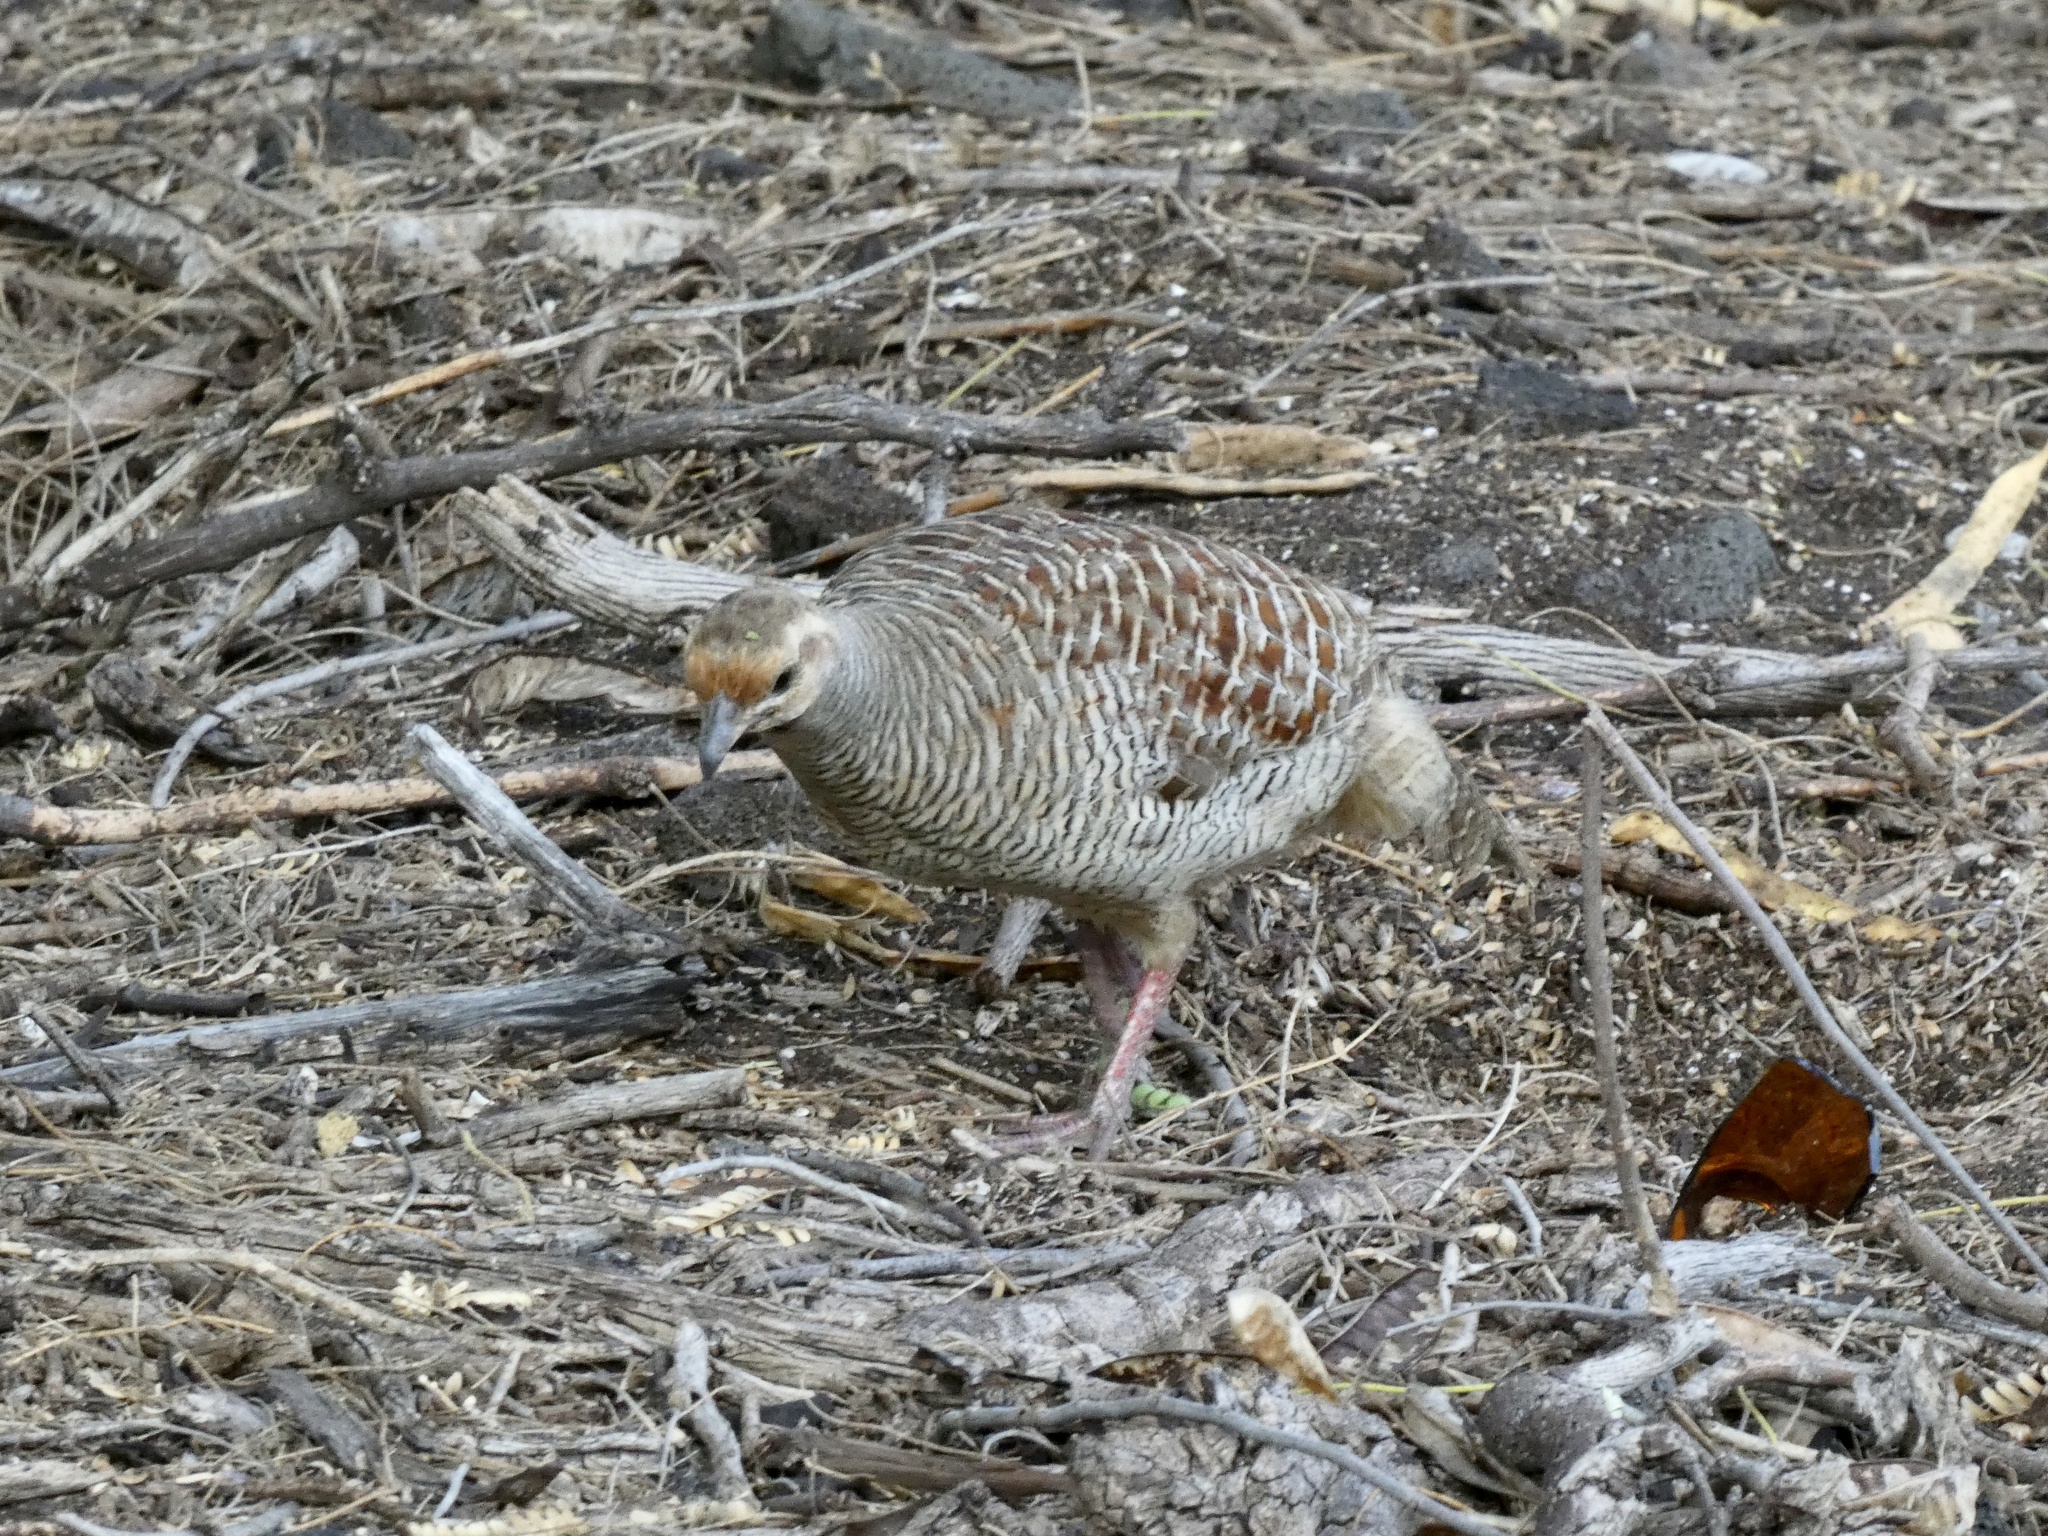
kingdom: Animalia
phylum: Chordata
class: Aves
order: Galliformes
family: Phasianidae
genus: Ortygornis
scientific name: Ortygornis pondicerianus
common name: Grey francolin
